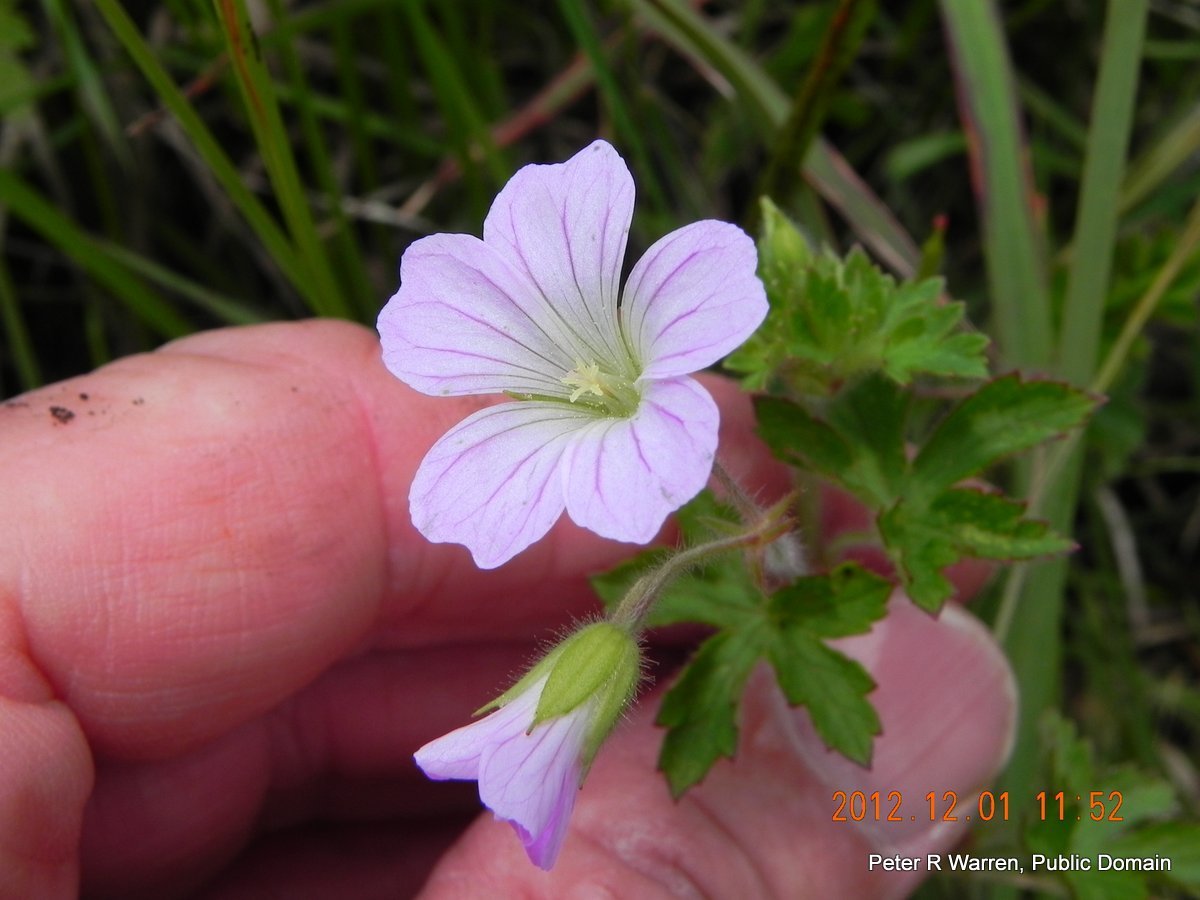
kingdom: Plantae
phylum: Tracheophyta
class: Magnoliopsida
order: Geraniales
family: Geraniaceae
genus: Geranium
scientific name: Geranium pulchrum
